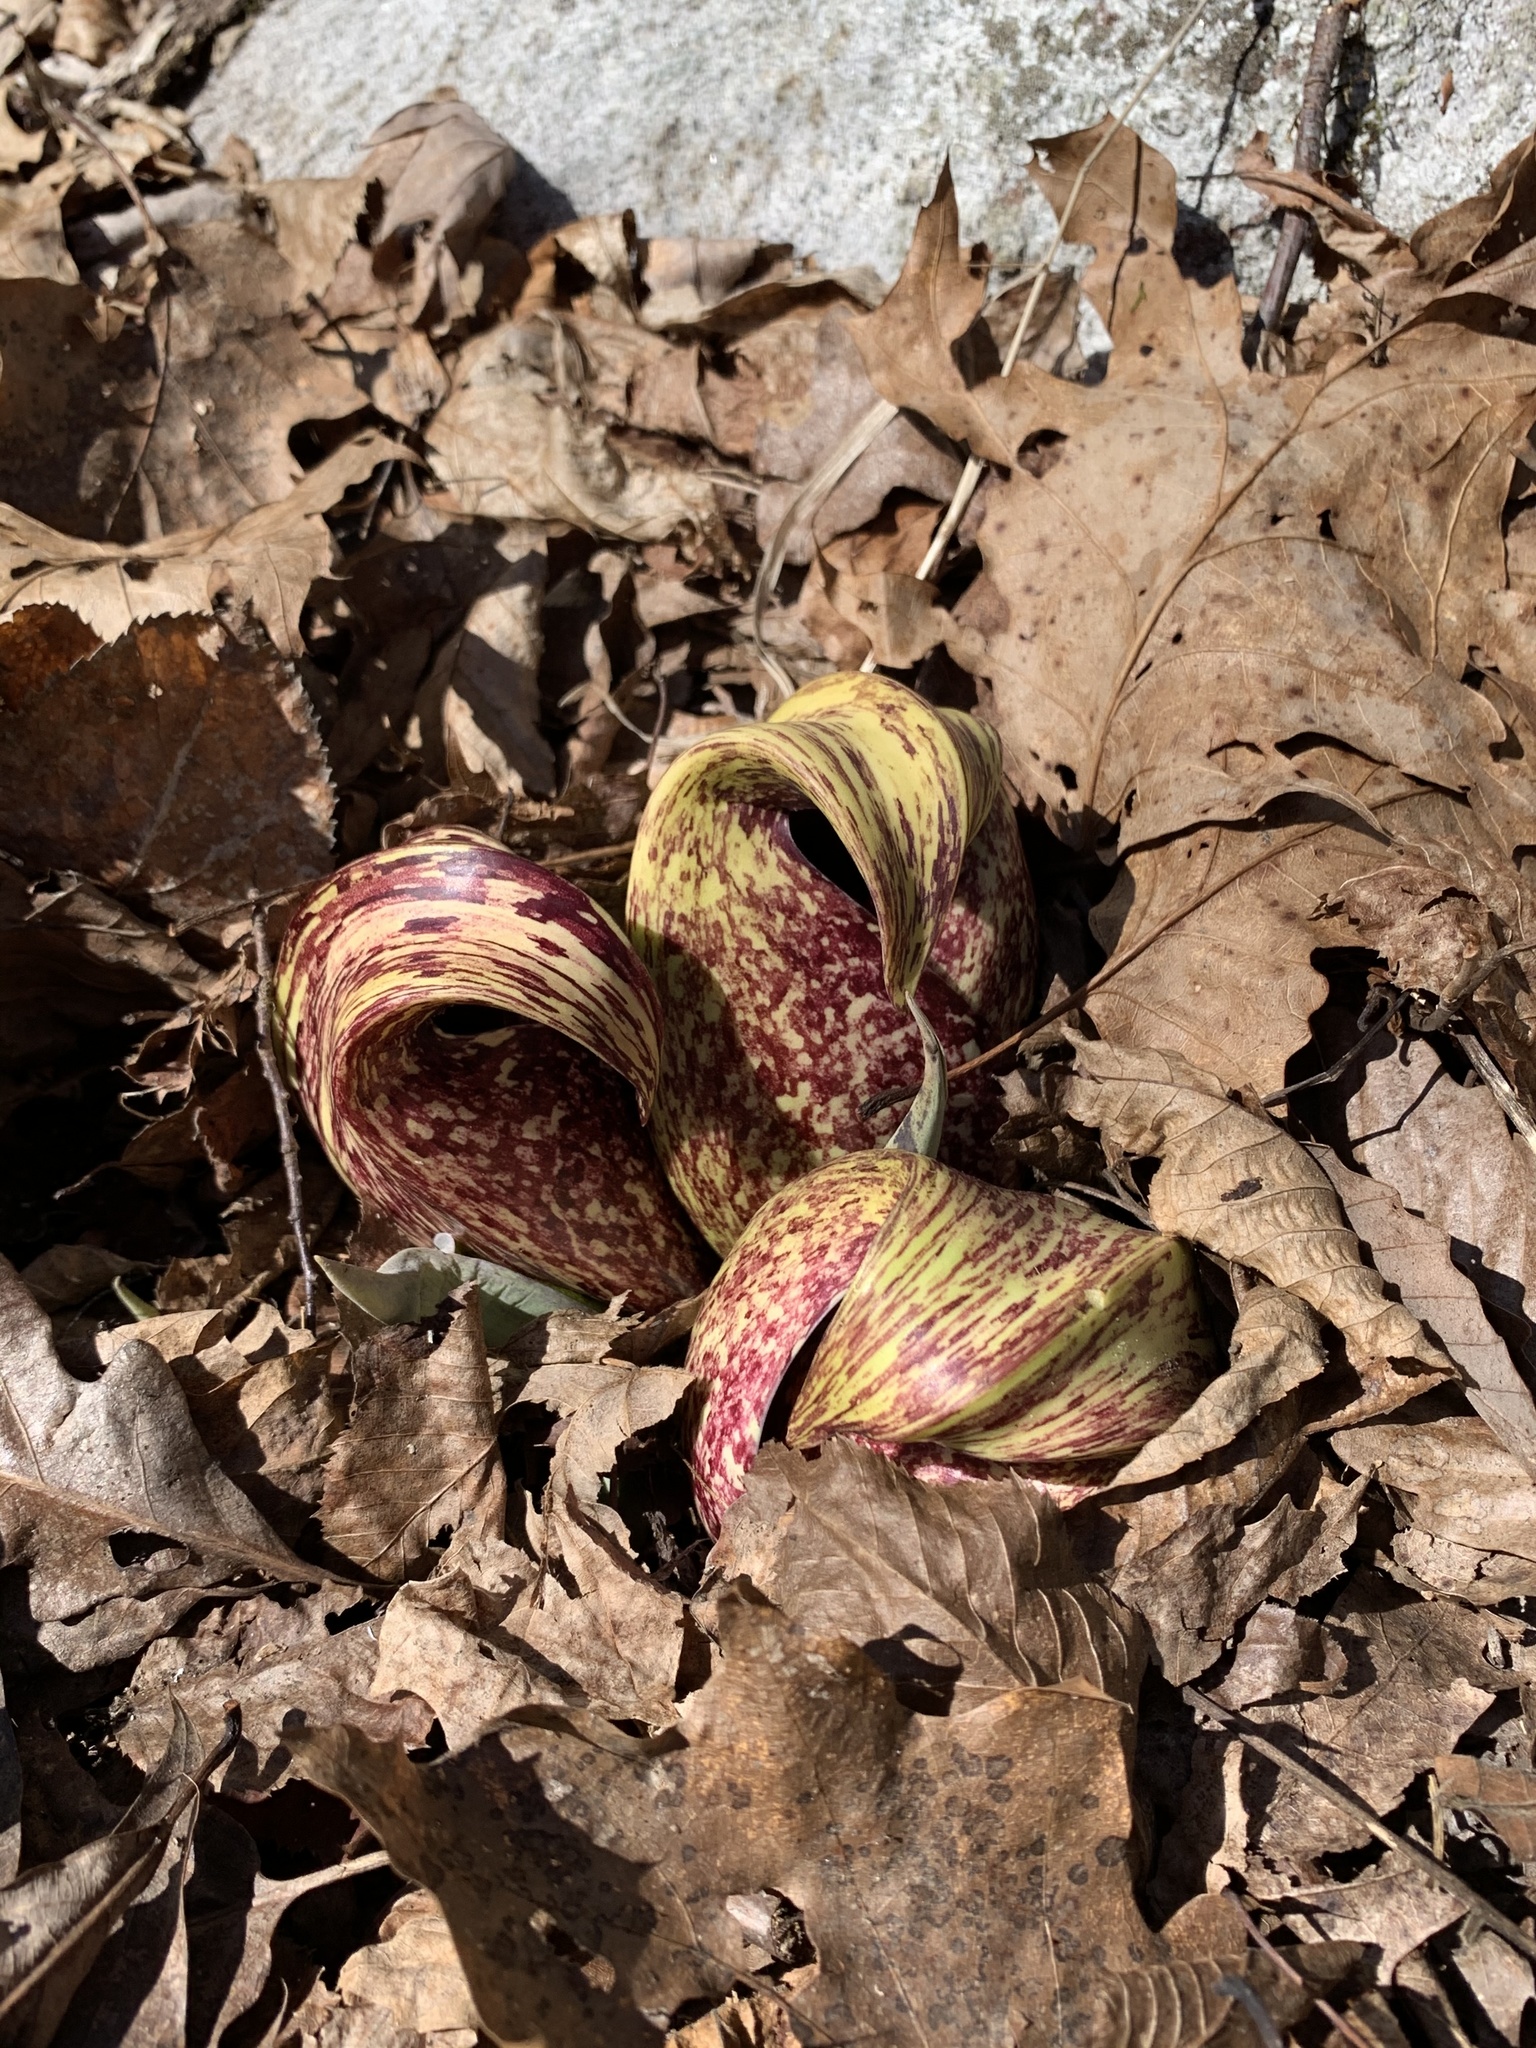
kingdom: Plantae
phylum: Tracheophyta
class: Liliopsida
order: Alismatales
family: Araceae
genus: Symplocarpus
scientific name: Symplocarpus foetidus
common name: Eastern skunk cabbage
